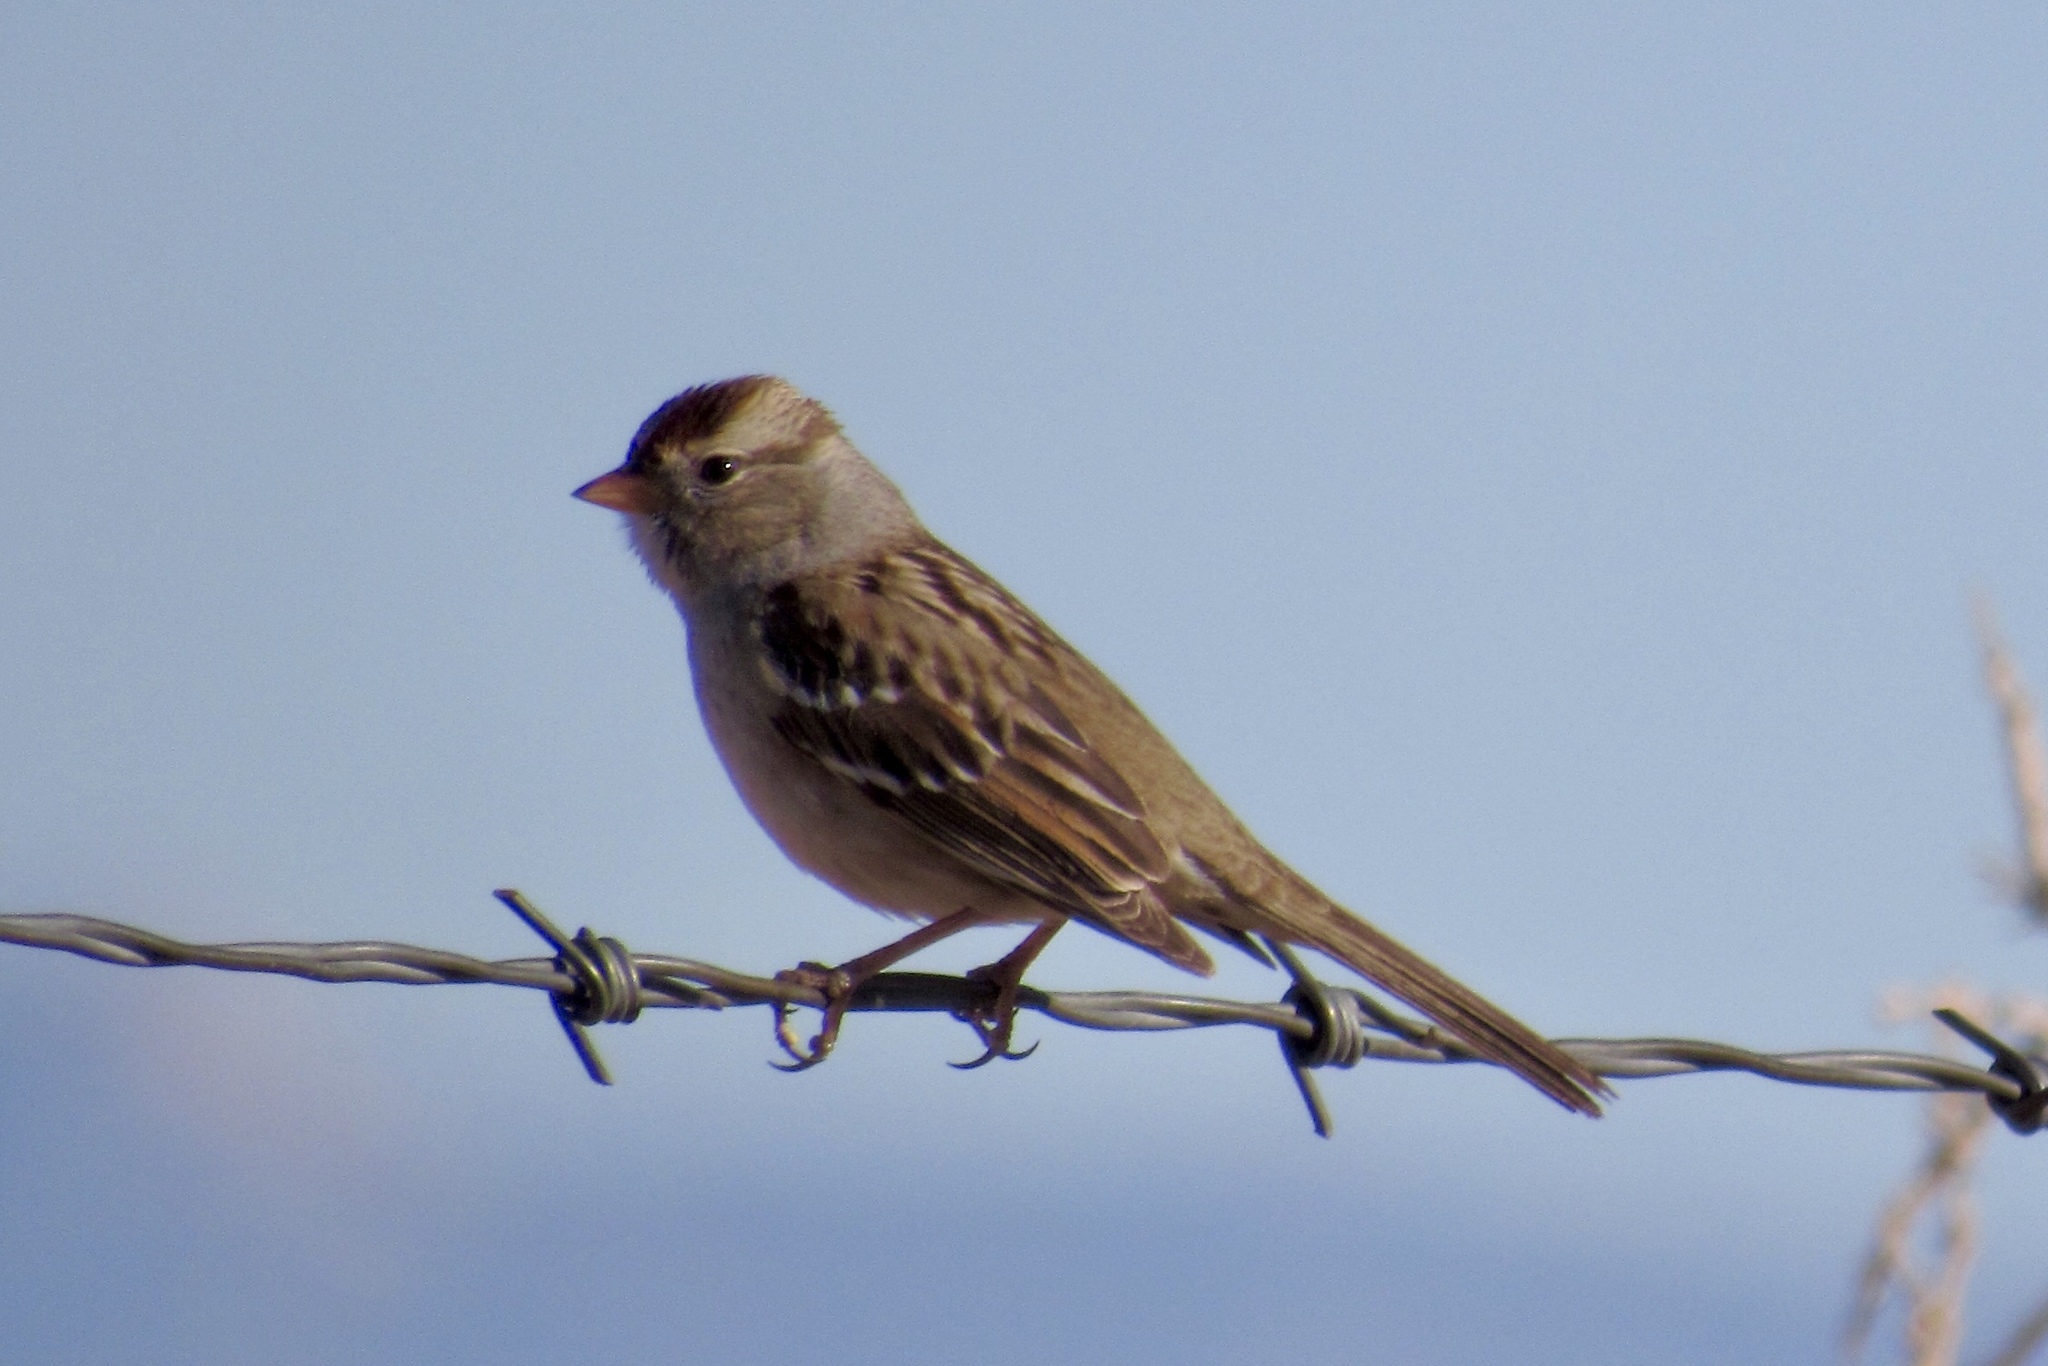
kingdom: Animalia
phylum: Chordata
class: Aves
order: Passeriformes
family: Passerellidae
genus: Zonotrichia
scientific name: Zonotrichia leucophrys
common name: White-crowned sparrow
